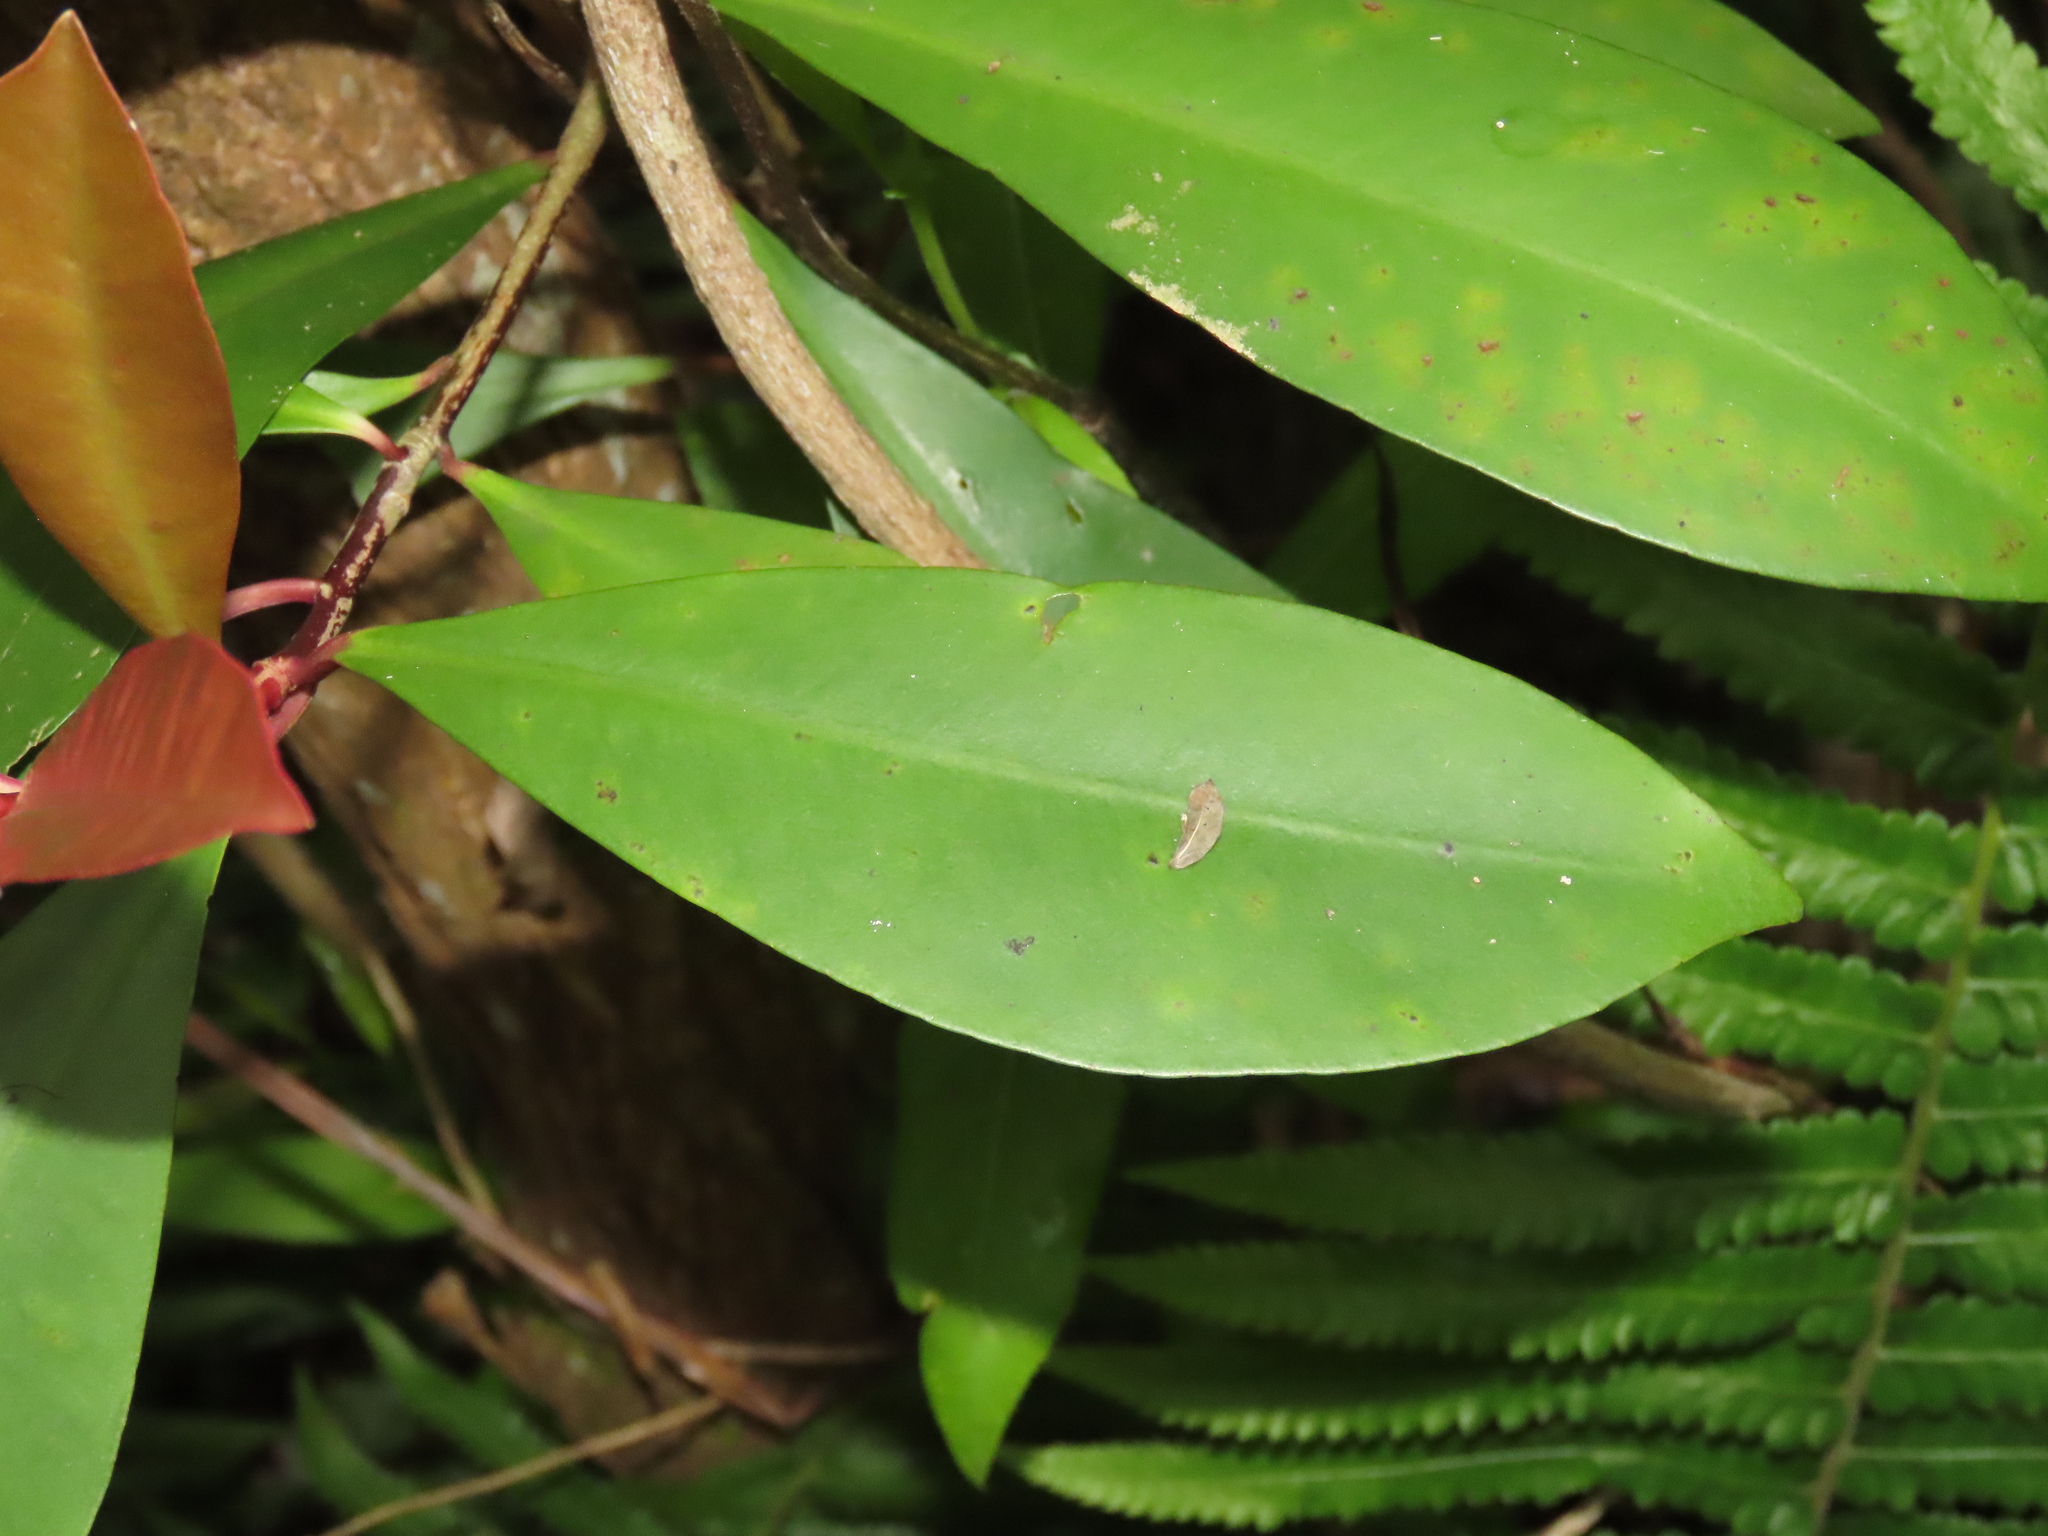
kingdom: Plantae
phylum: Tracheophyta
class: Magnoliopsida
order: Ericales
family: Primulaceae
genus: Ardisia
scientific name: Ardisia elliptica
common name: Shoebutton
